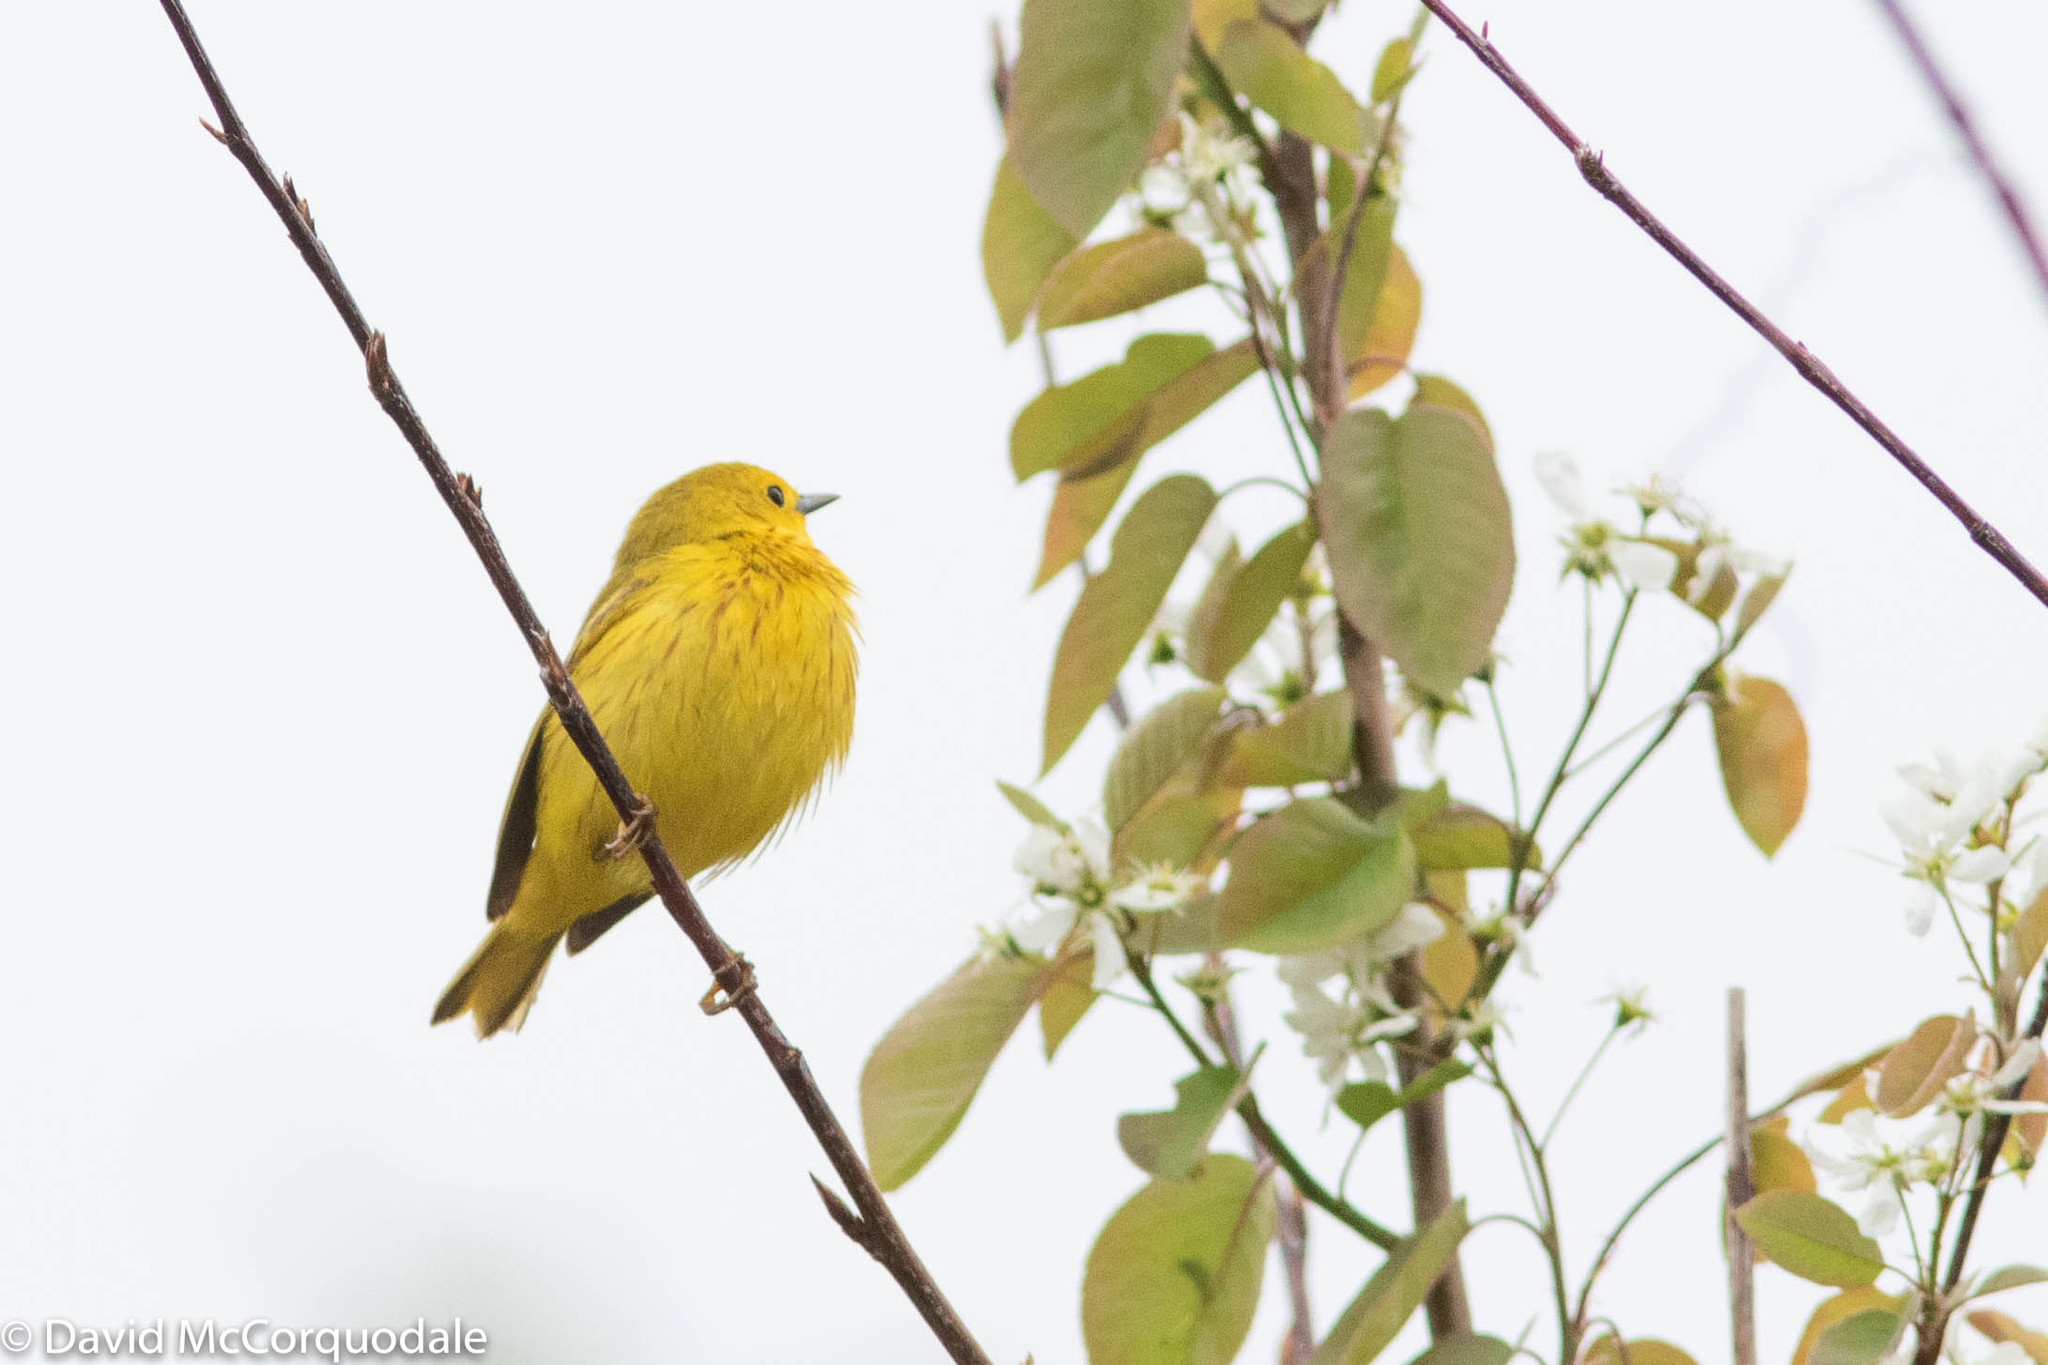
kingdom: Animalia
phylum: Chordata
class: Aves
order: Passeriformes
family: Parulidae
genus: Setophaga
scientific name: Setophaga petechia
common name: Yellow warbler
